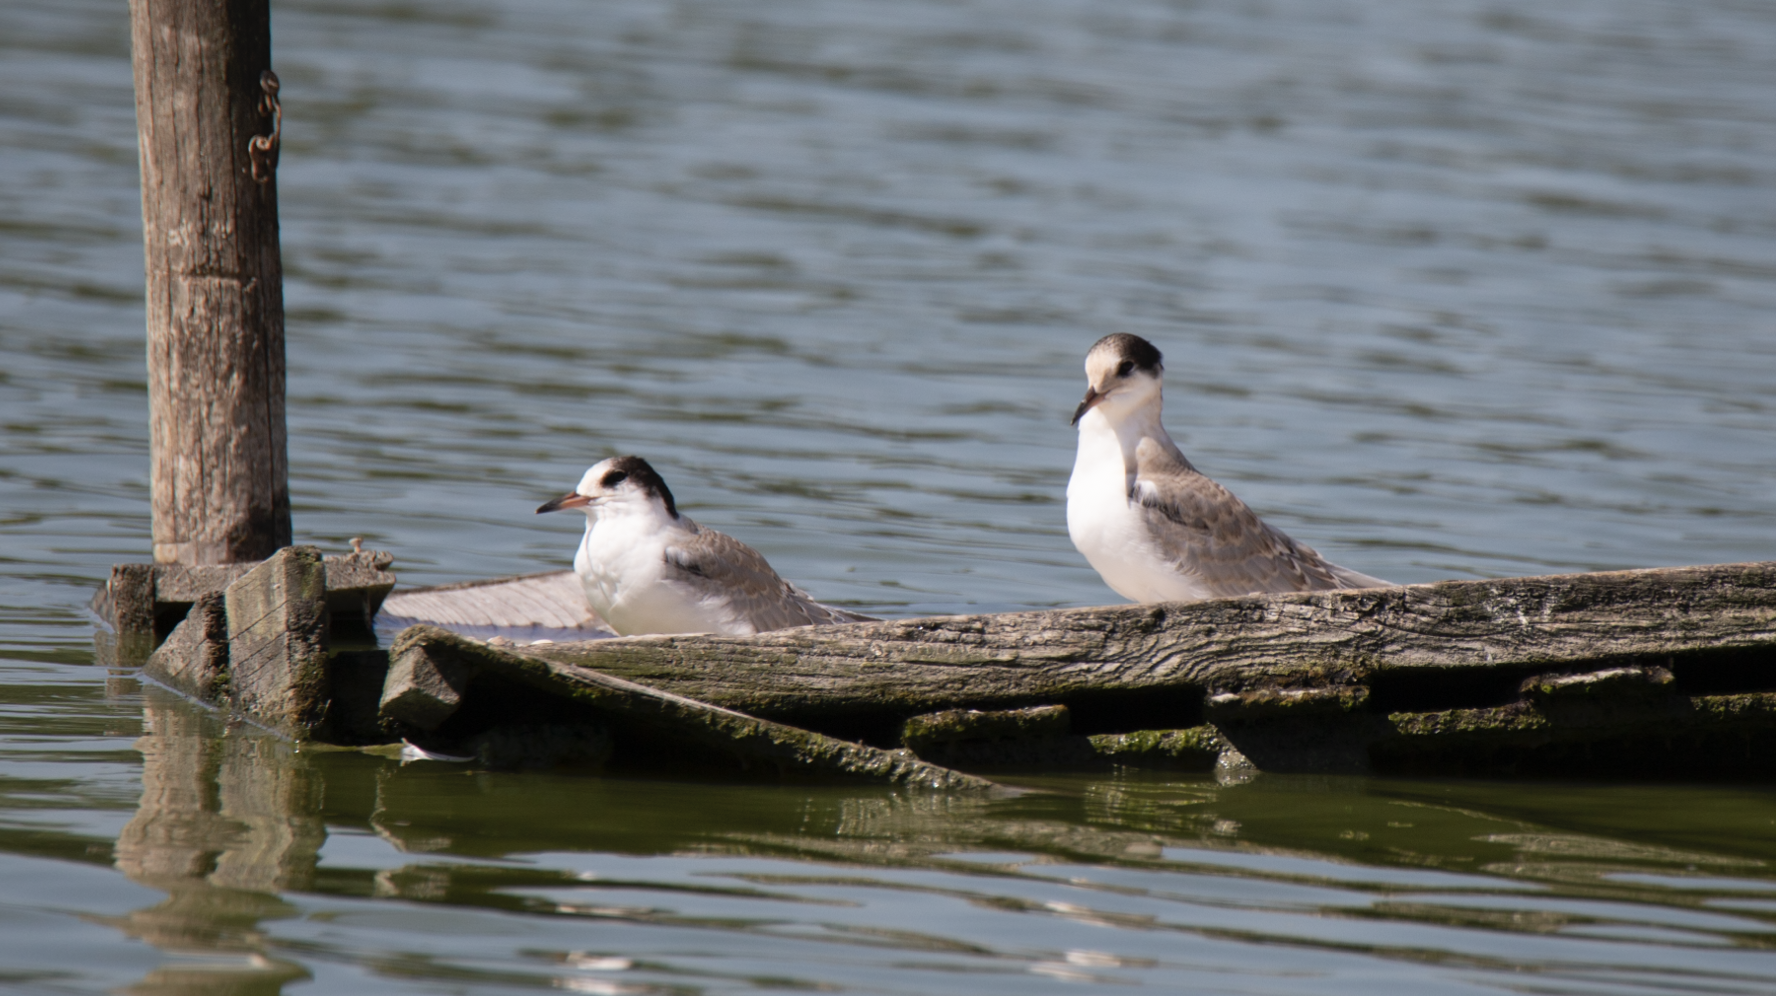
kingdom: Animalia
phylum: Chordata
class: Aves
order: Charadriiformes
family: Laridae
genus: Sterna
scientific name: Sterna hirundo
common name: Common tern
